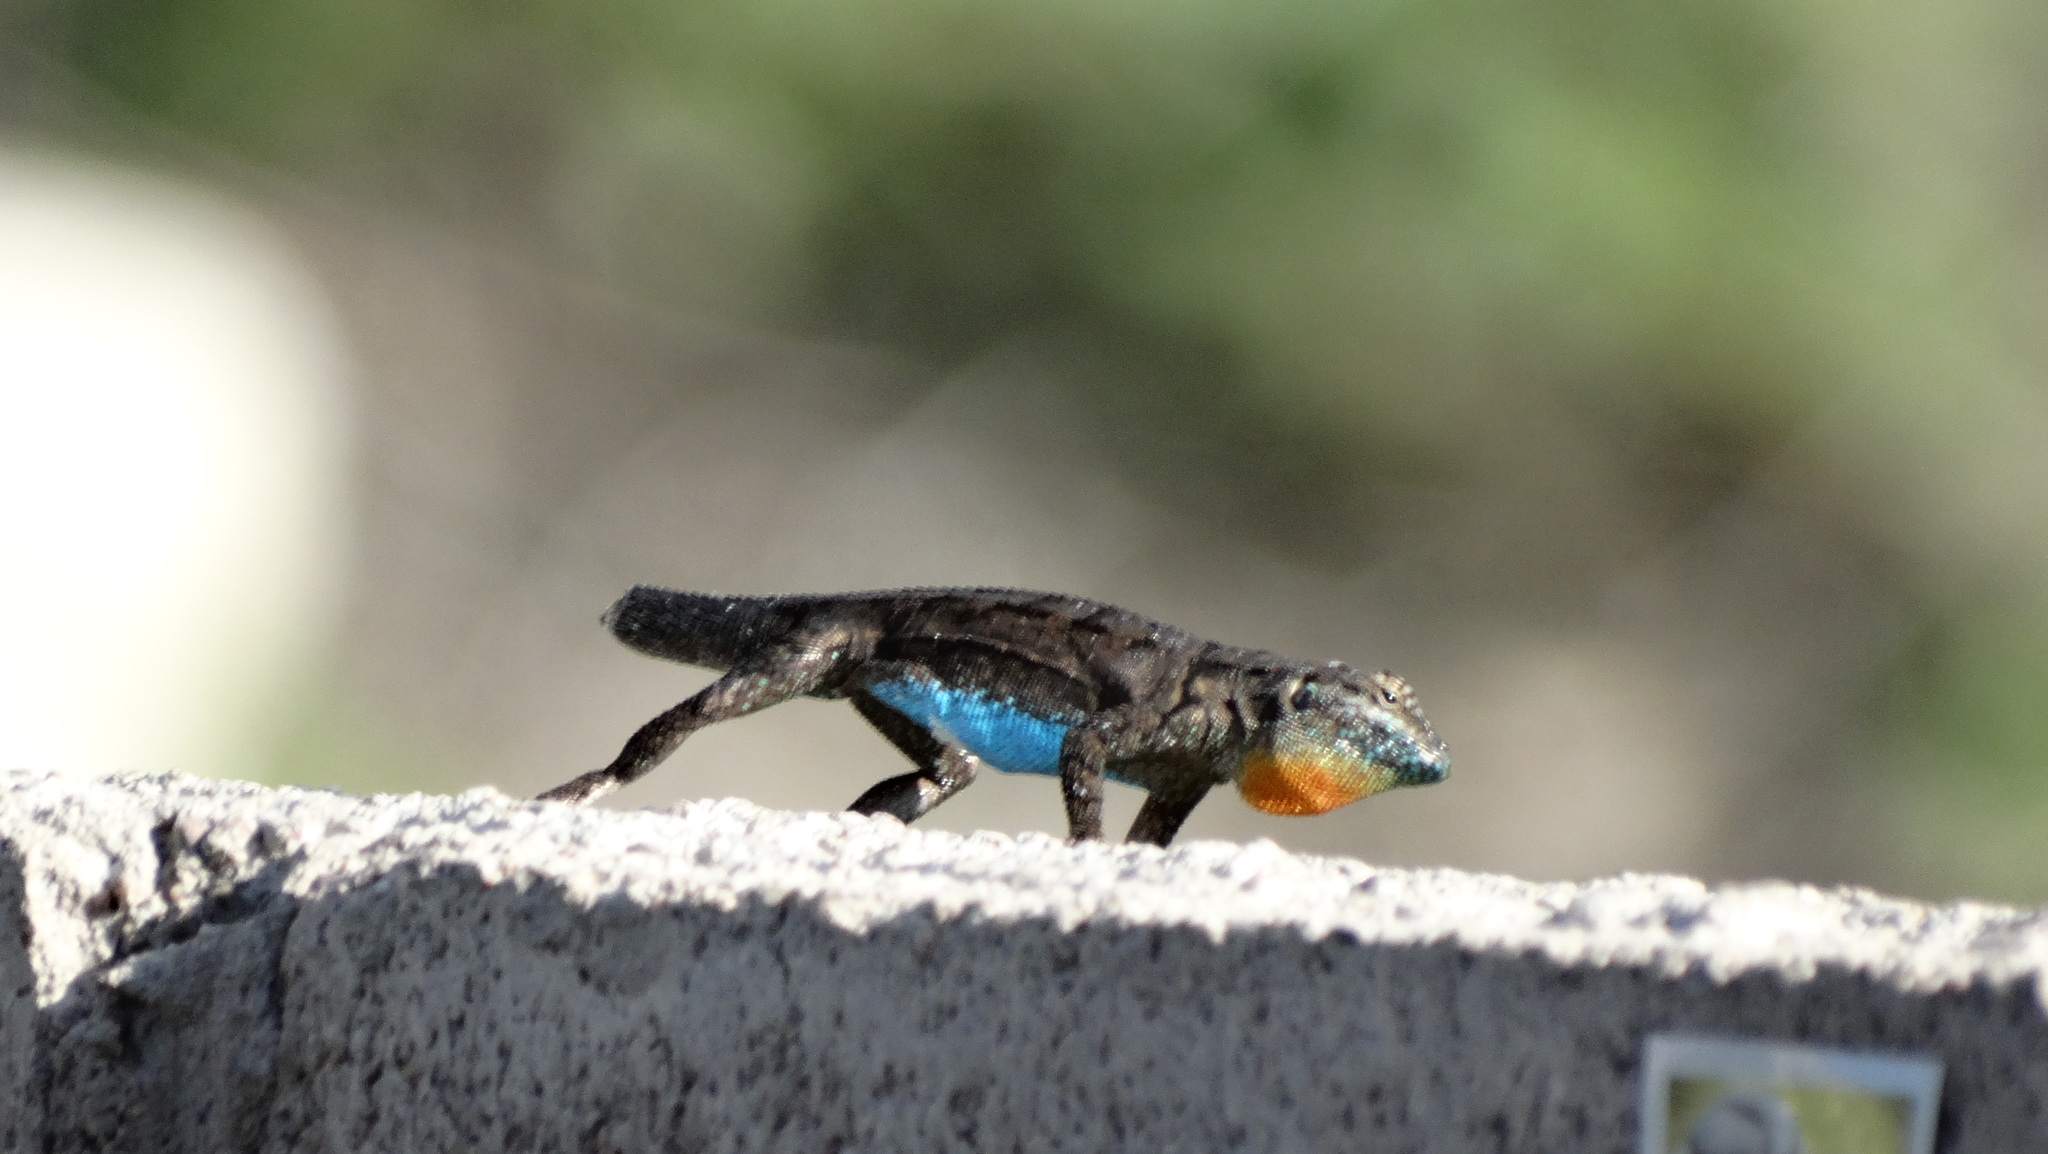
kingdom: Animalia
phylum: Chordata
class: Squamata
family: Phrynosomatidae
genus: Urosaurus
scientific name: Urosaurus ornatus
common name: Ornate tree lizard
